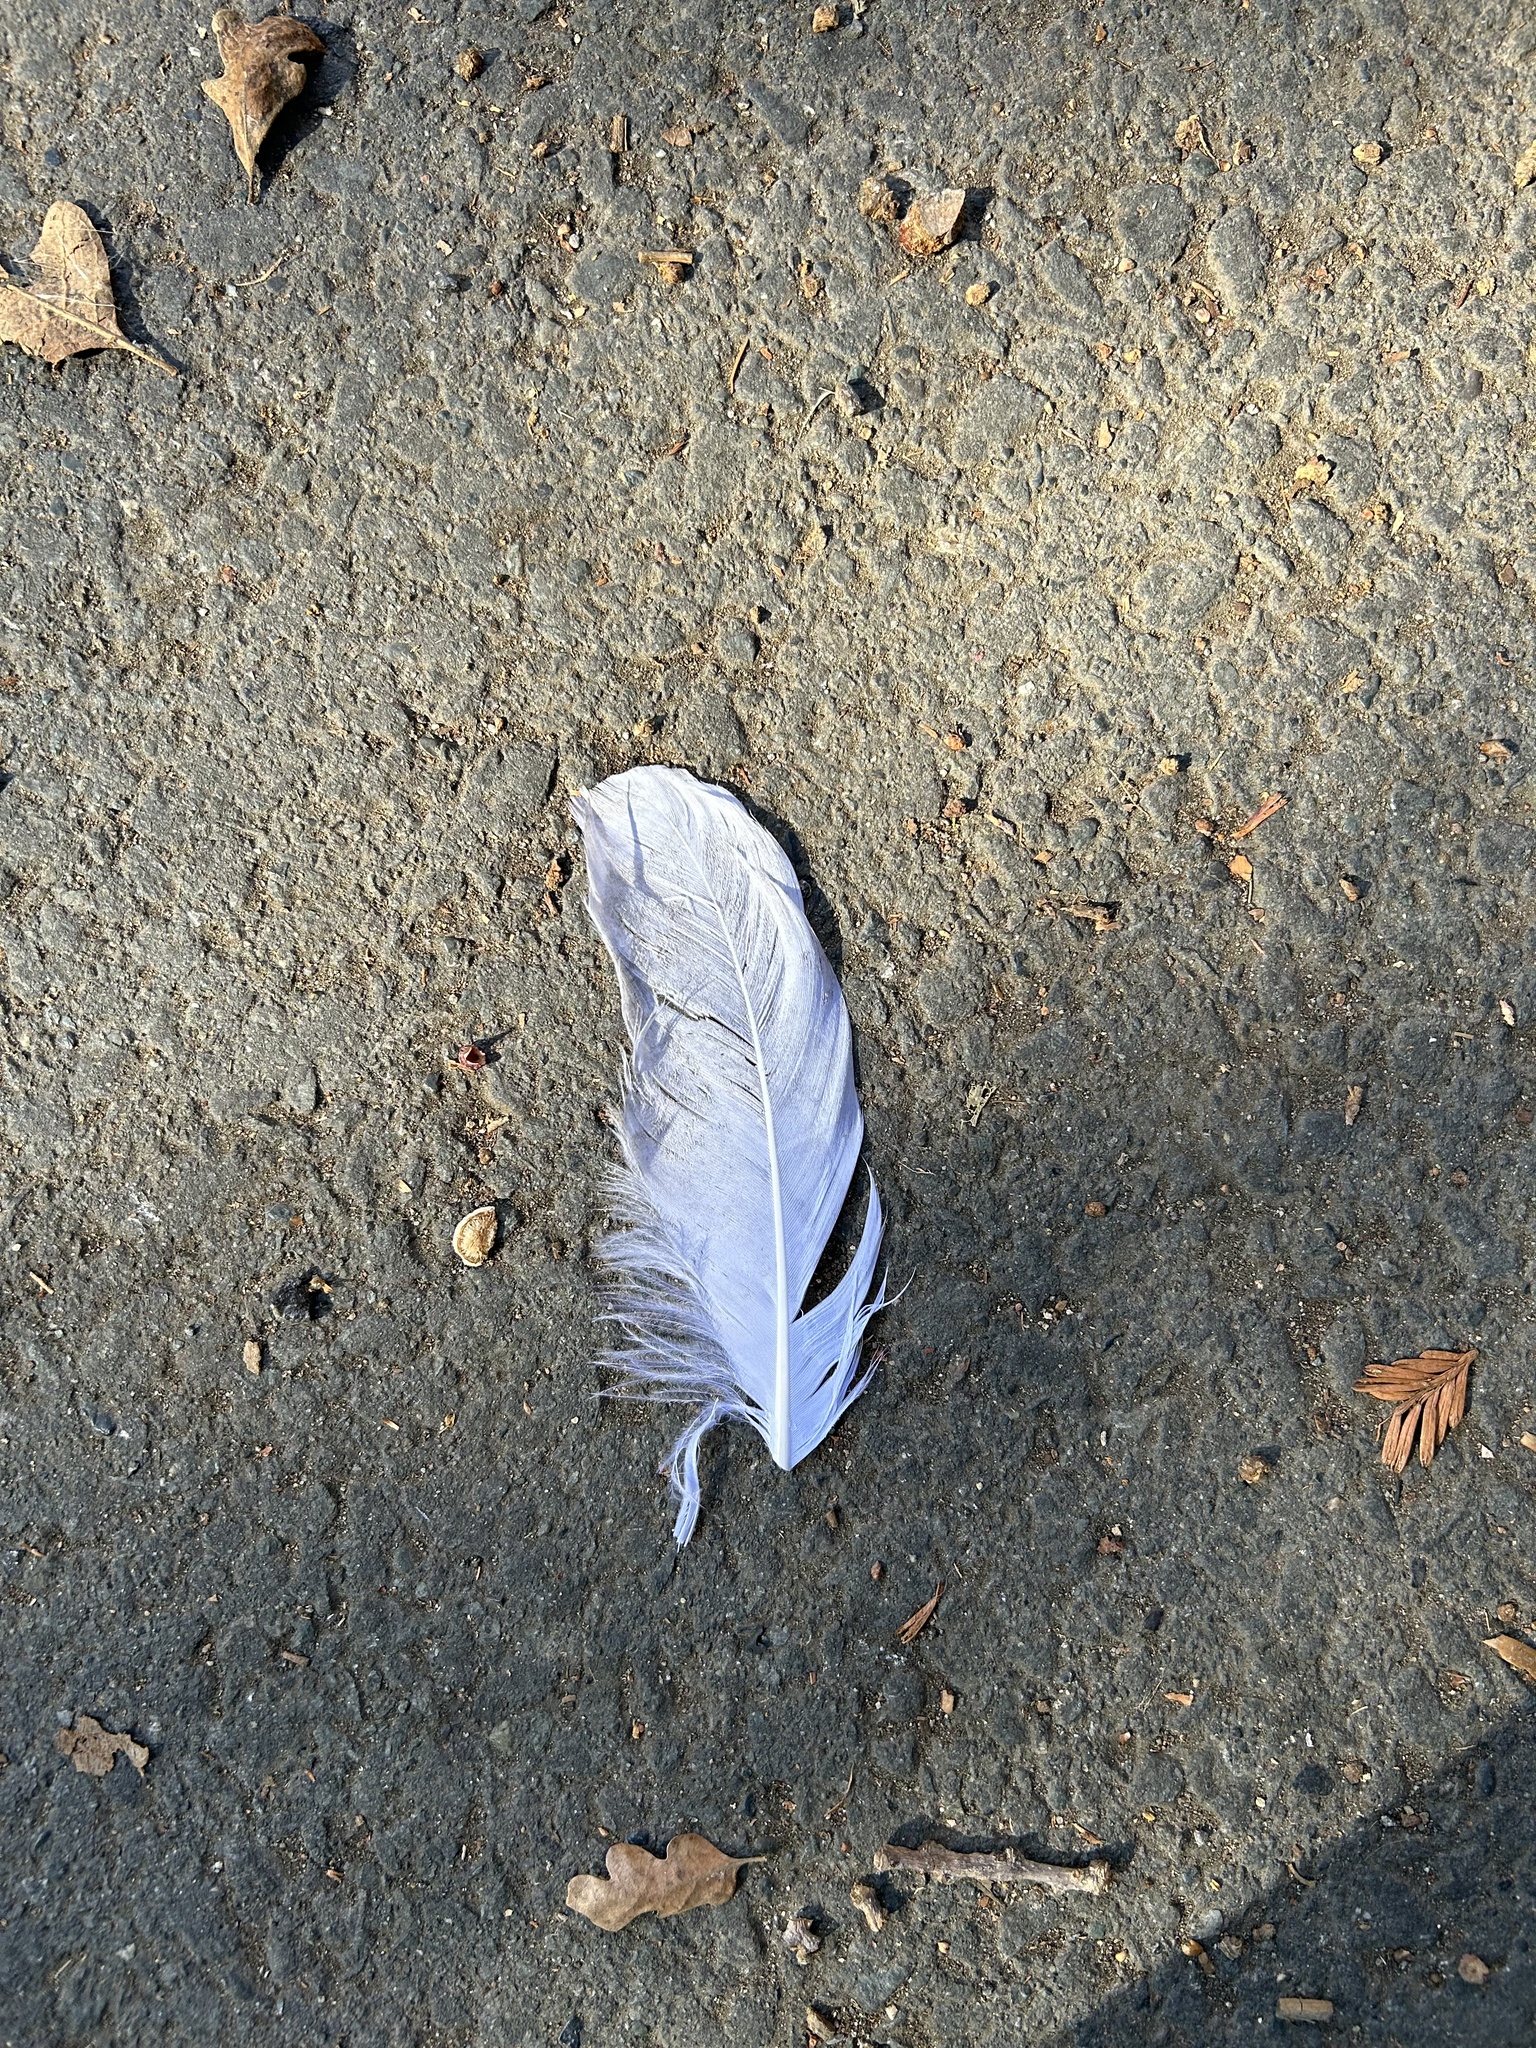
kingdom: Animalia
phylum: Chordata
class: Aves
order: Columbiformes
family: Columbidae
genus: Columba
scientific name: Columba livia
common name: Rock pigeon
